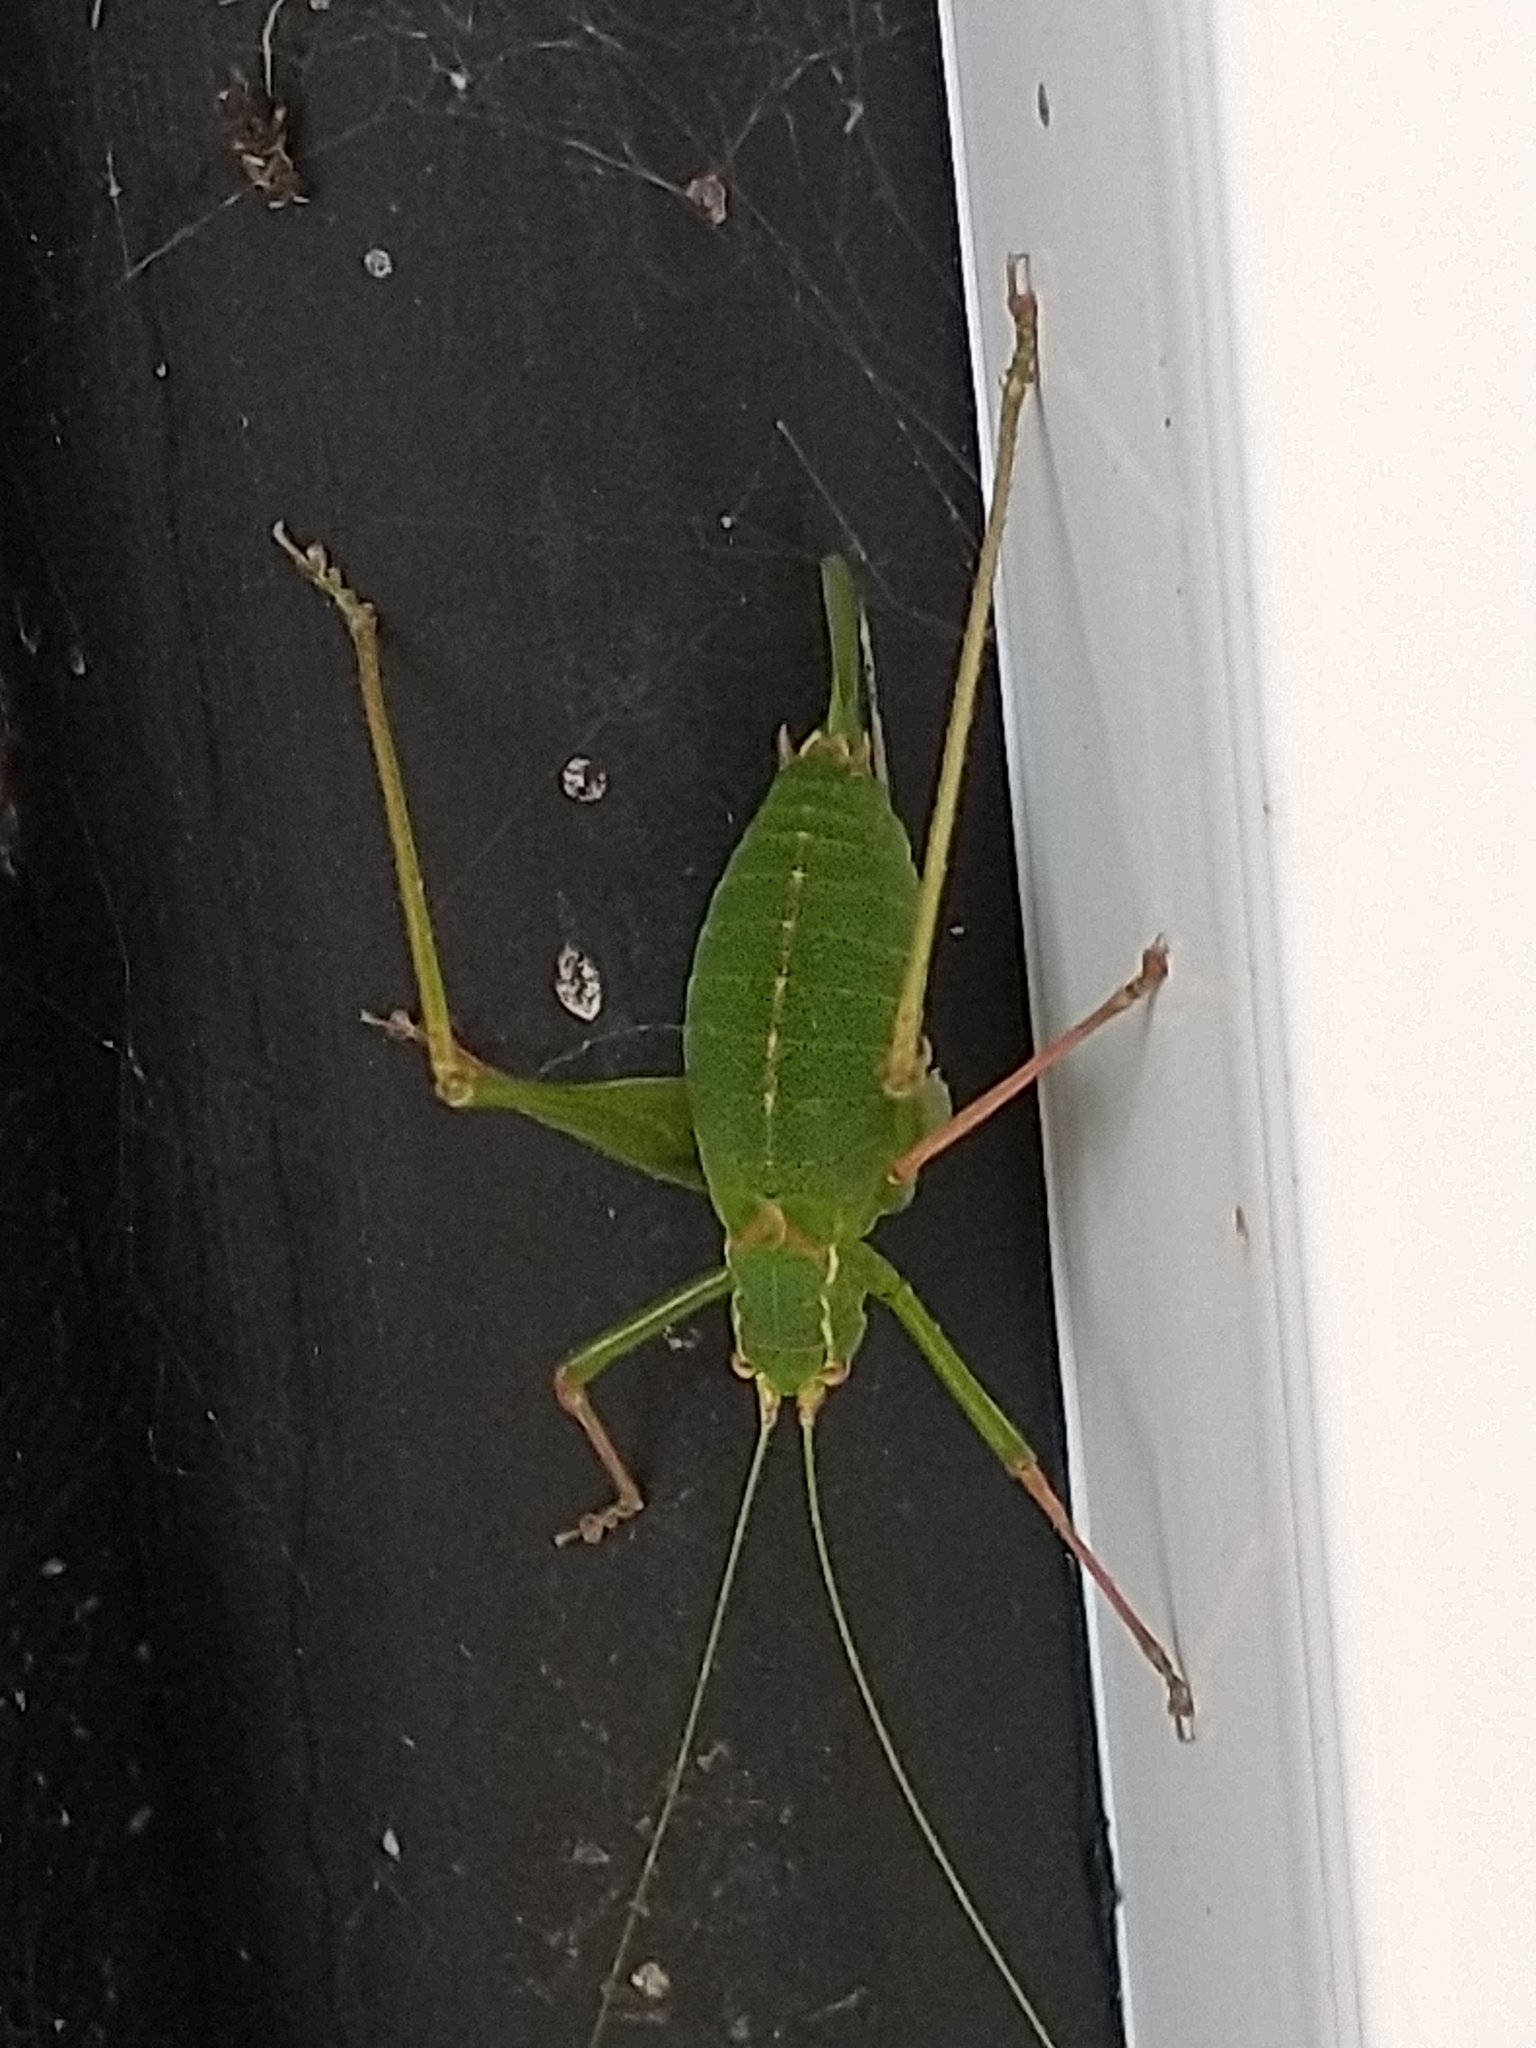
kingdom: Animalia
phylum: Arthropoda
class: Insecta
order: Orthoptera
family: Tettigoniidae
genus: Leptophyes
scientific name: Leptophyes punctatissima
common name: Speckled bush-cricket
